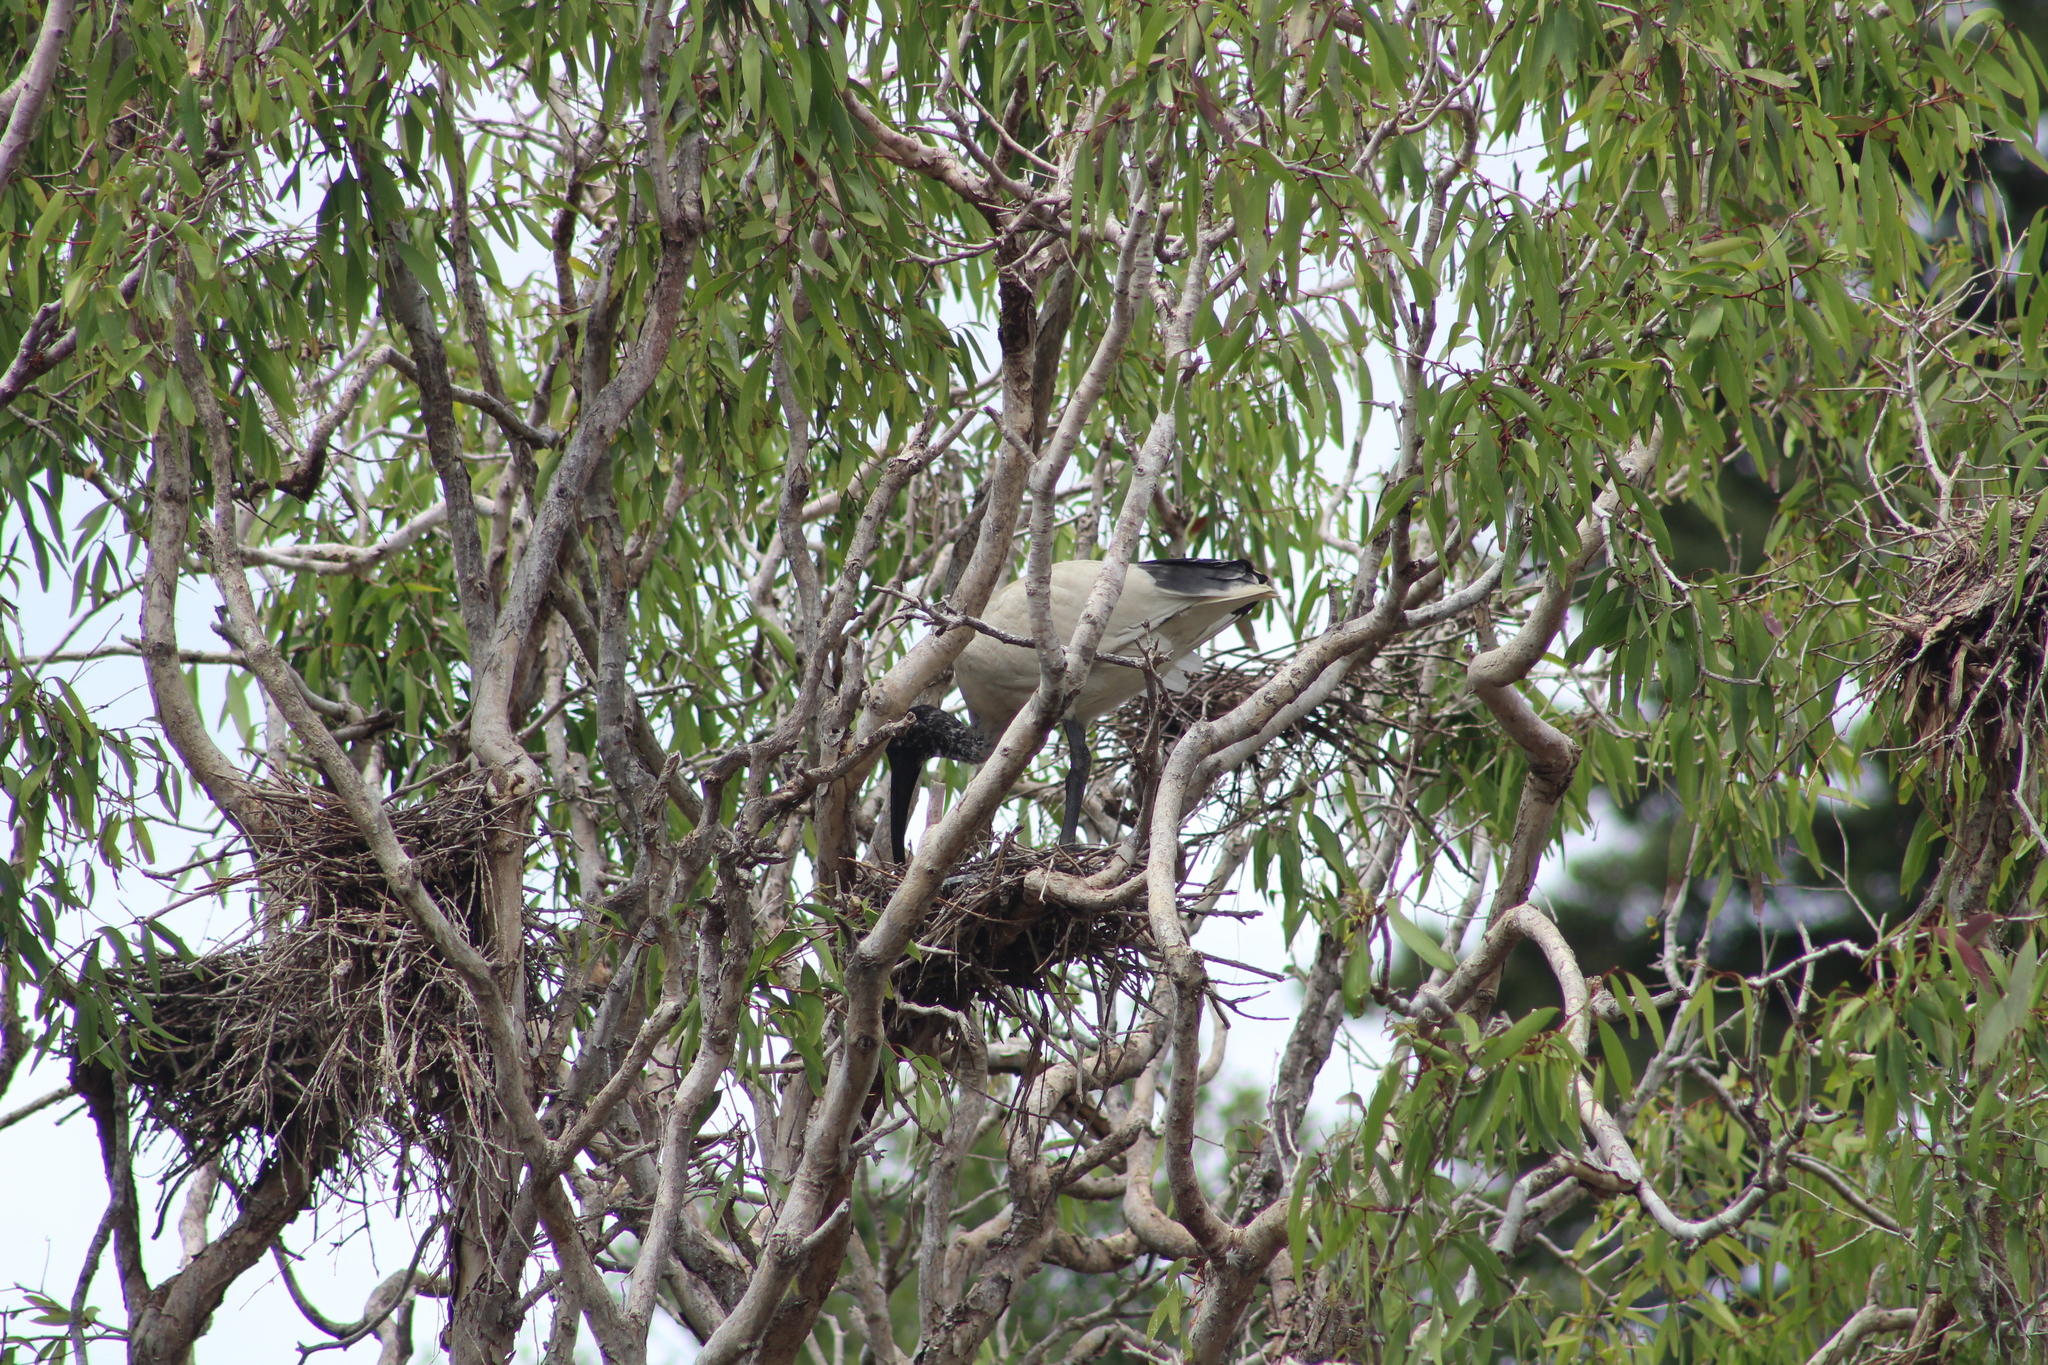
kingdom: Animalia
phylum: Chordata
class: Aves
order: Pelecaniformes
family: Threskiornithidae
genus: Threskiornis
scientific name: Threskiornis molucca
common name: Australian white ibis
